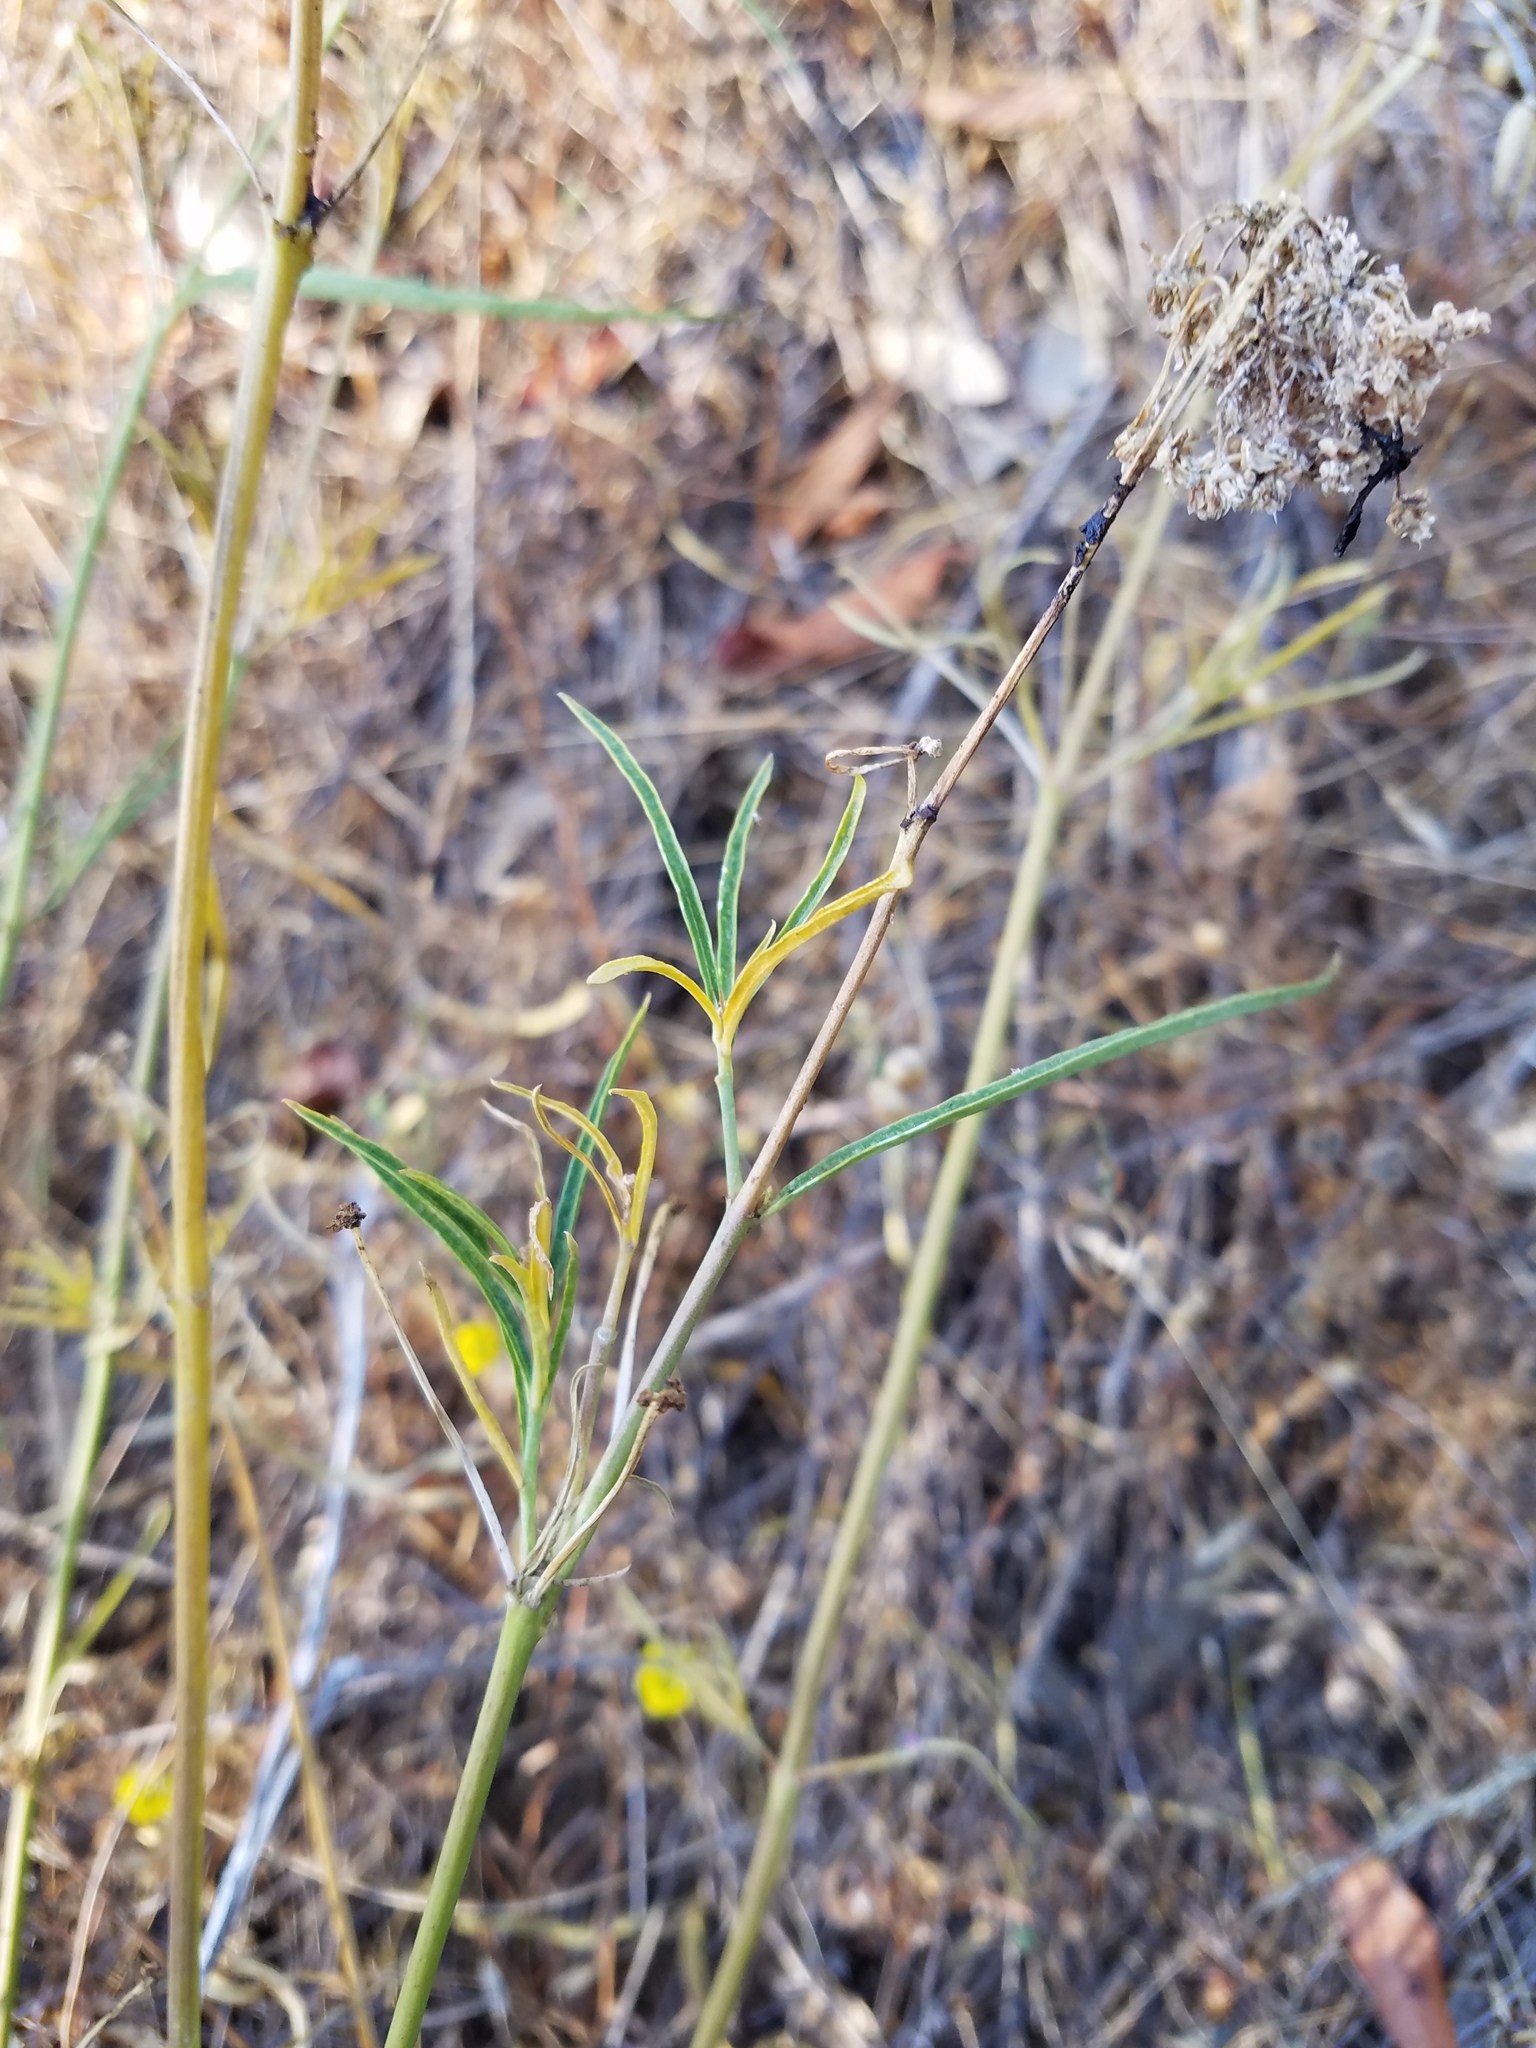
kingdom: Plantae
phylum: Tracheophyta
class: Magnoliopsida
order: Gentianales
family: Apocynaceae
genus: Asclepias
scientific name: Asclepias fascicularis
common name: Mexican milkweed
